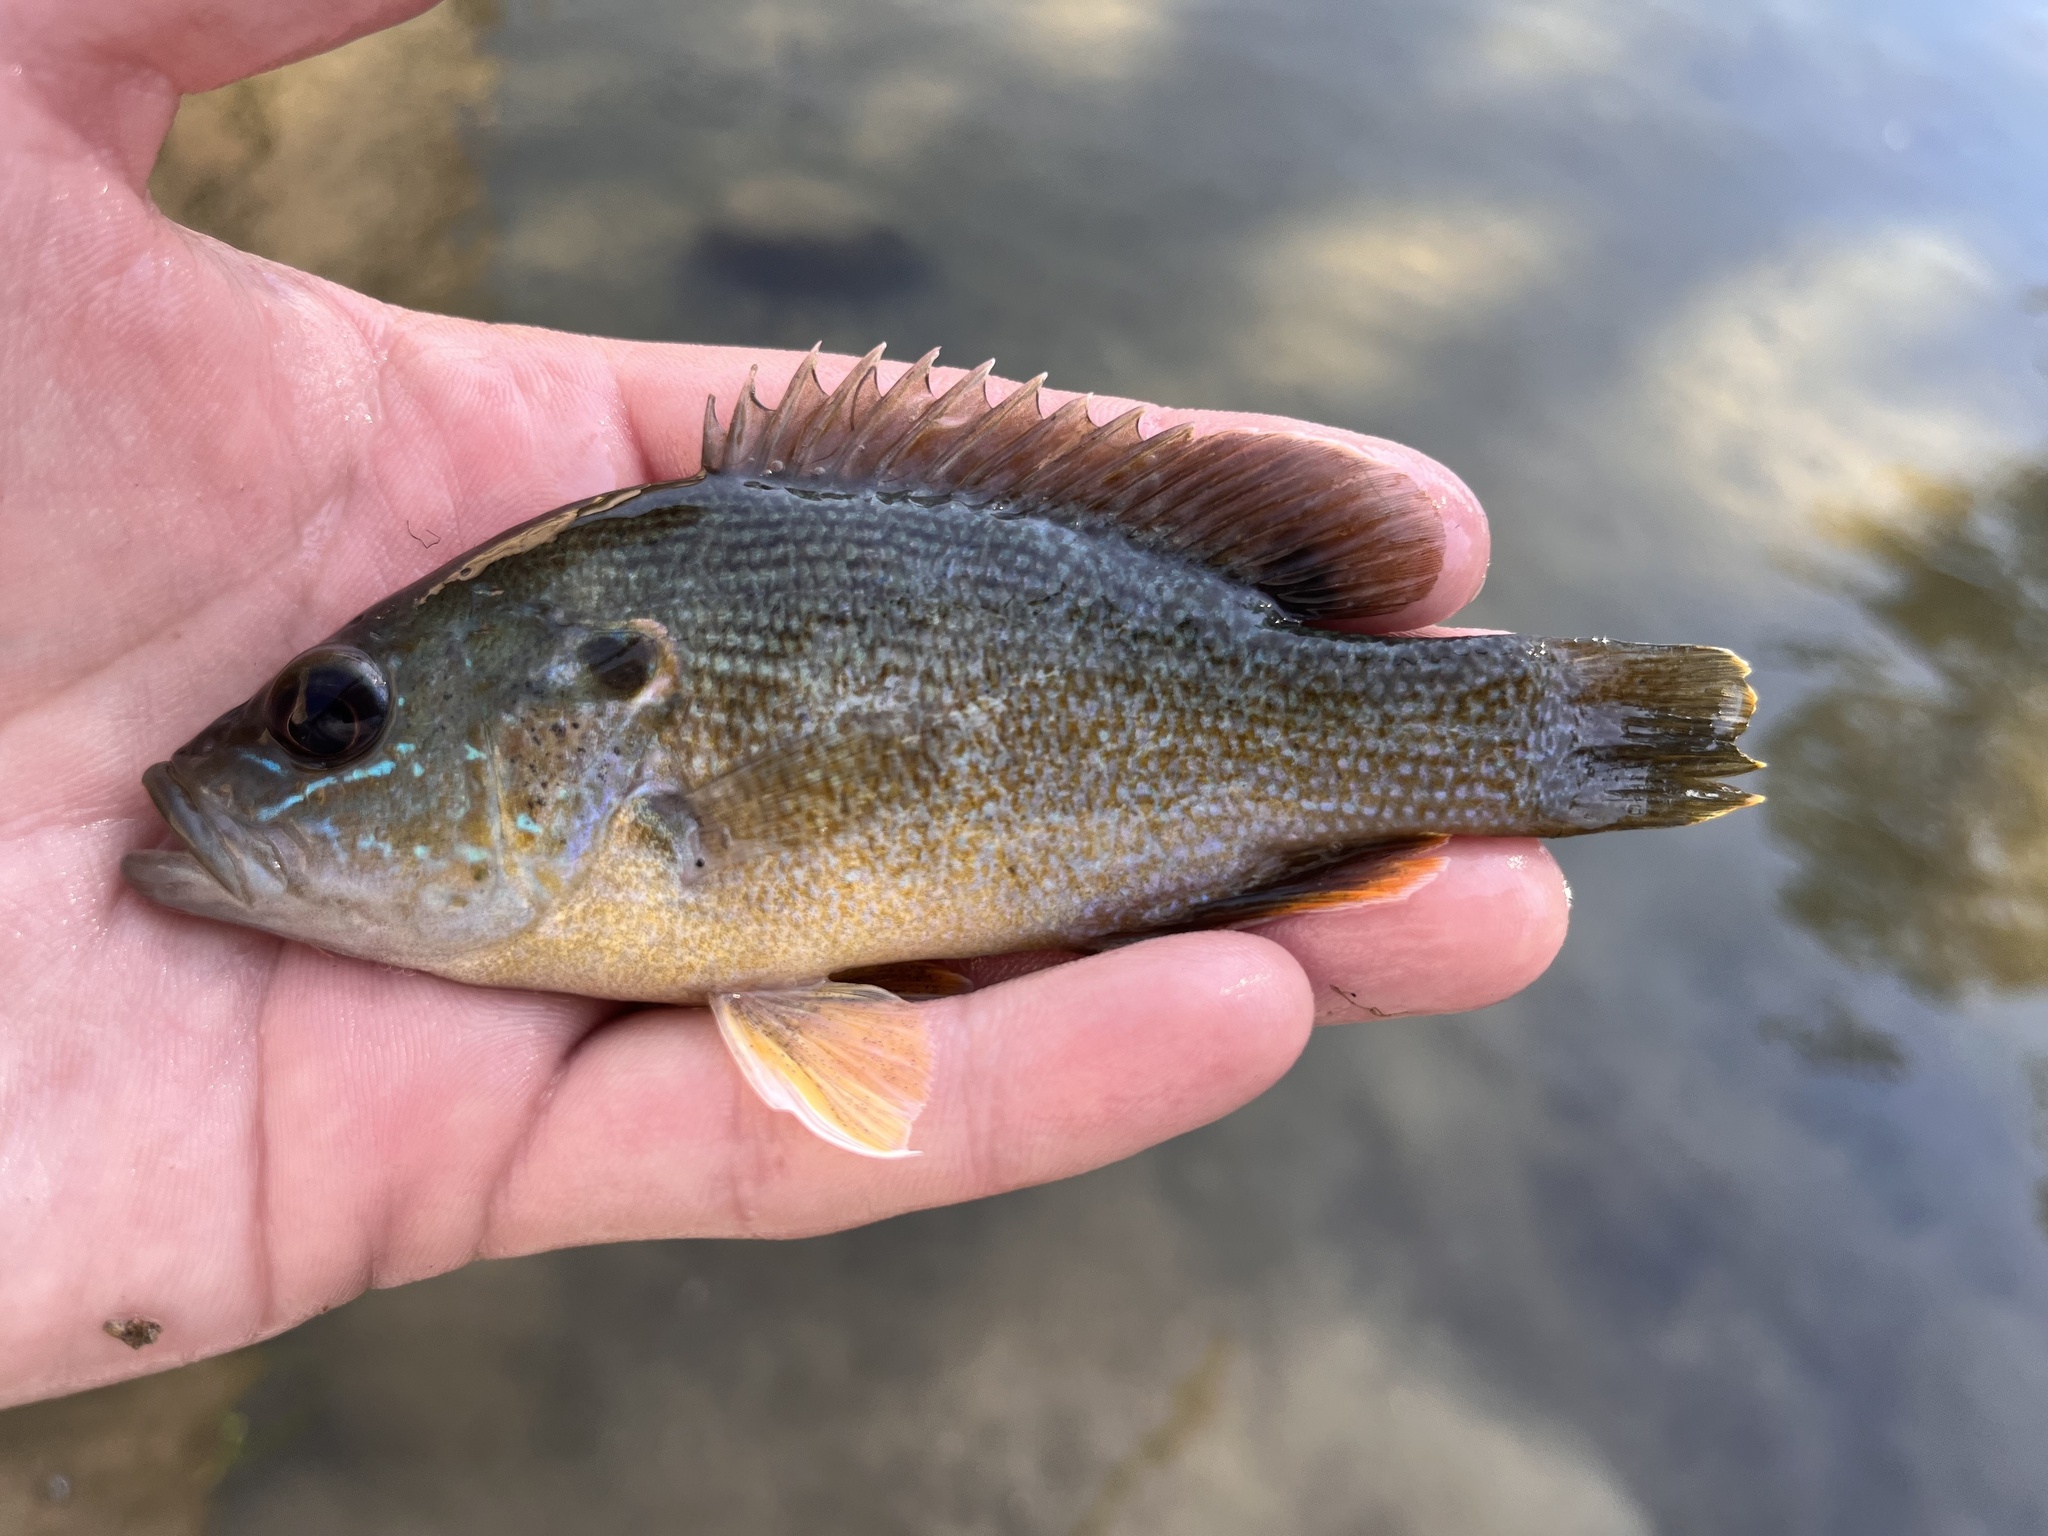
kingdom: Animalia
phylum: Chordata
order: Perciformes
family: Centrarchidae
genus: Lepomis
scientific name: Lepomis cyanellus
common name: Green sunfish
